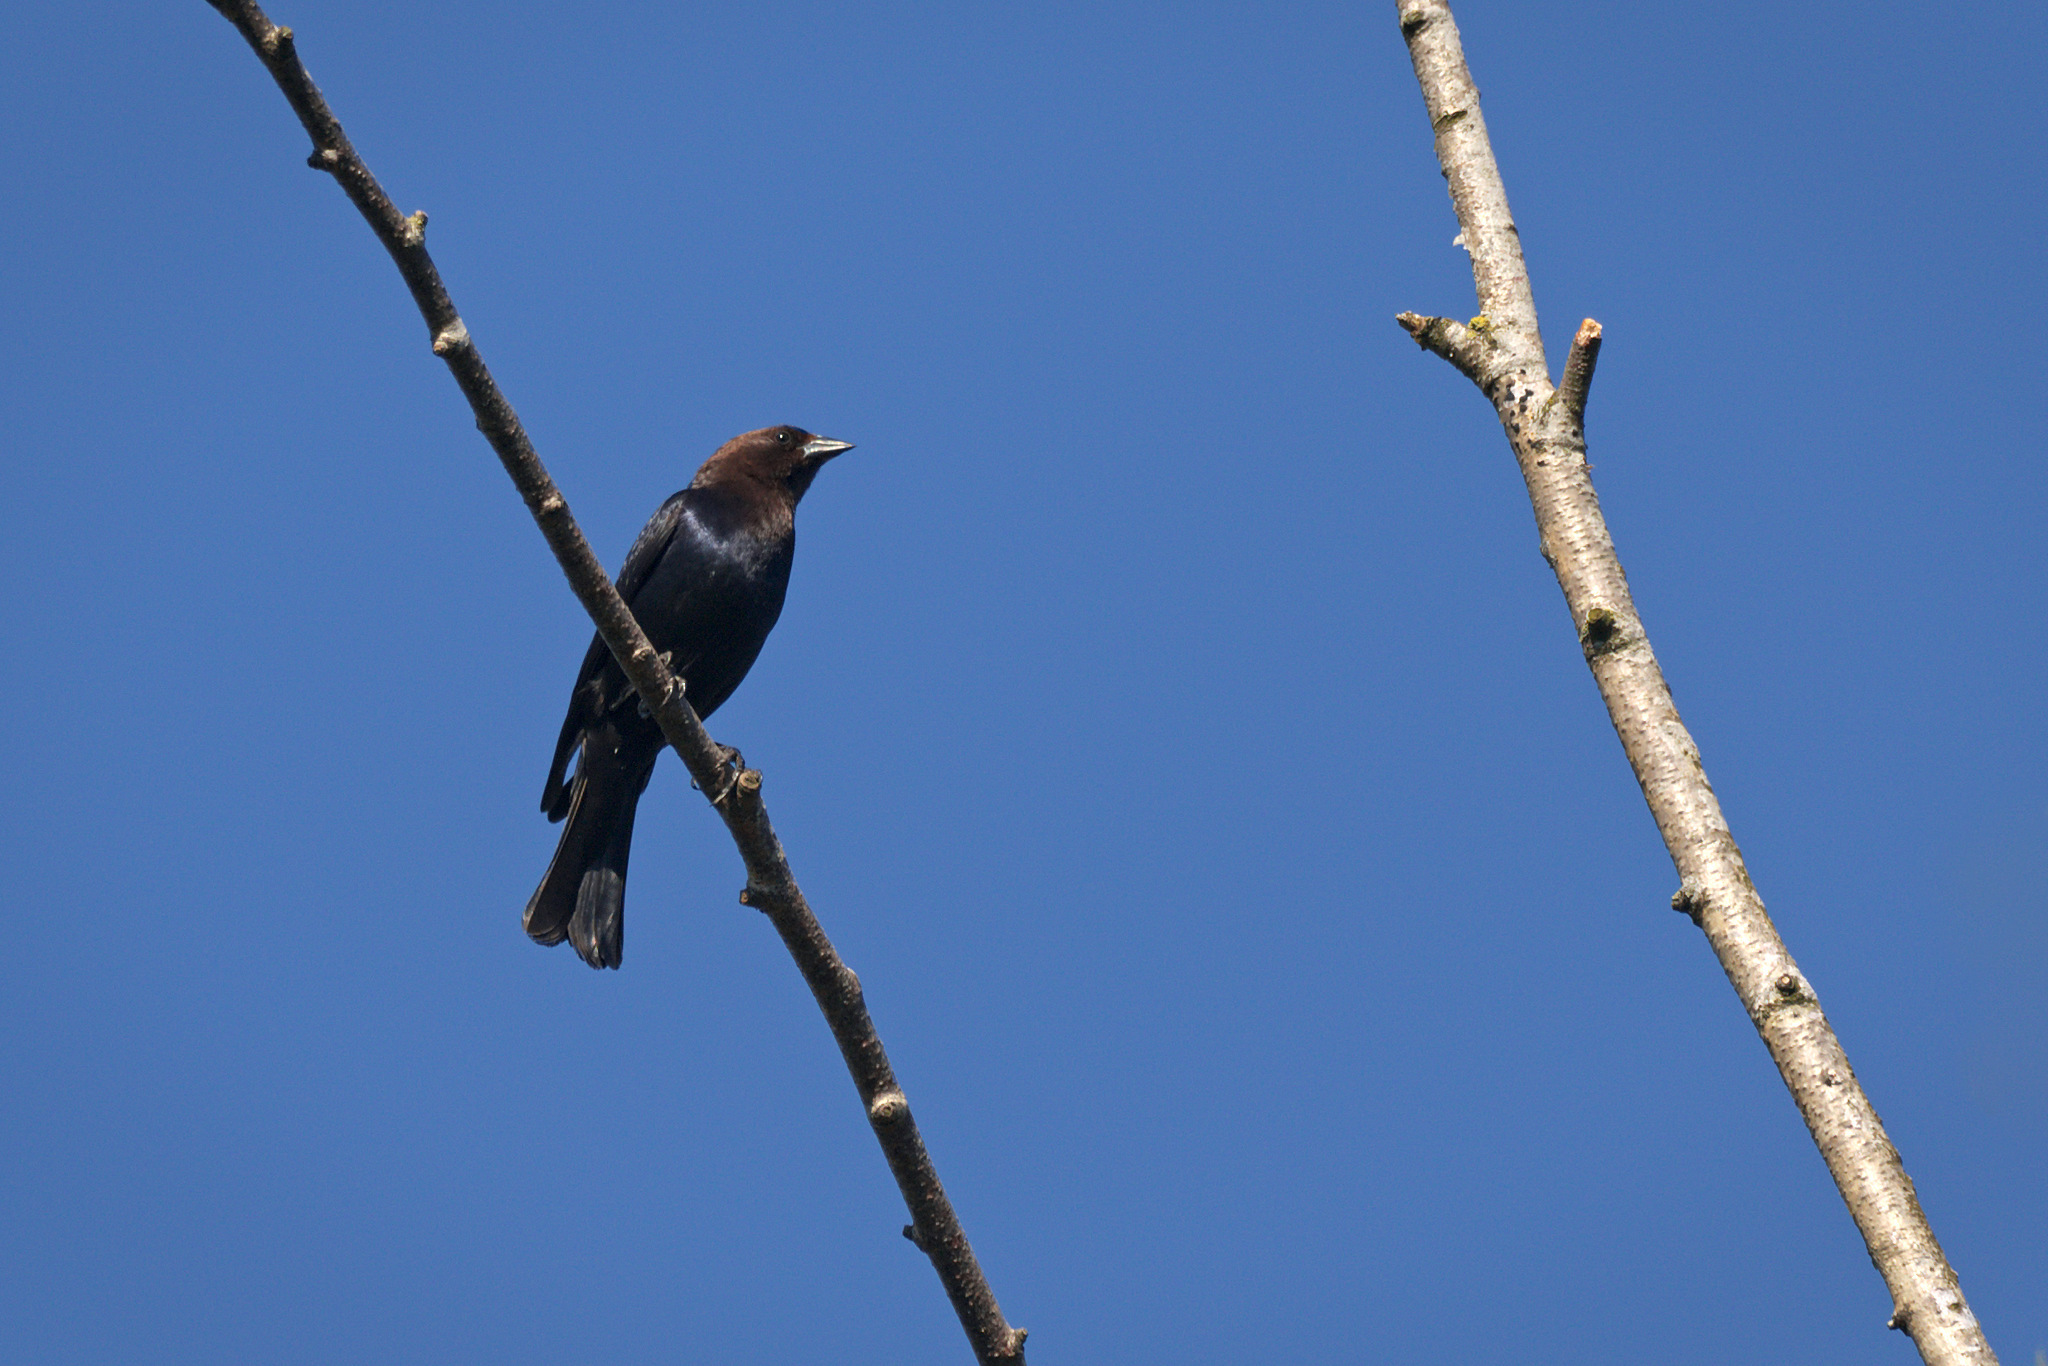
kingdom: Animalia
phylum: Chordata
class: Aves
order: Passeriformes
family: Icteridae
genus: Molothrus
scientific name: Molothrus ater
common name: Brown-headed cowbird
